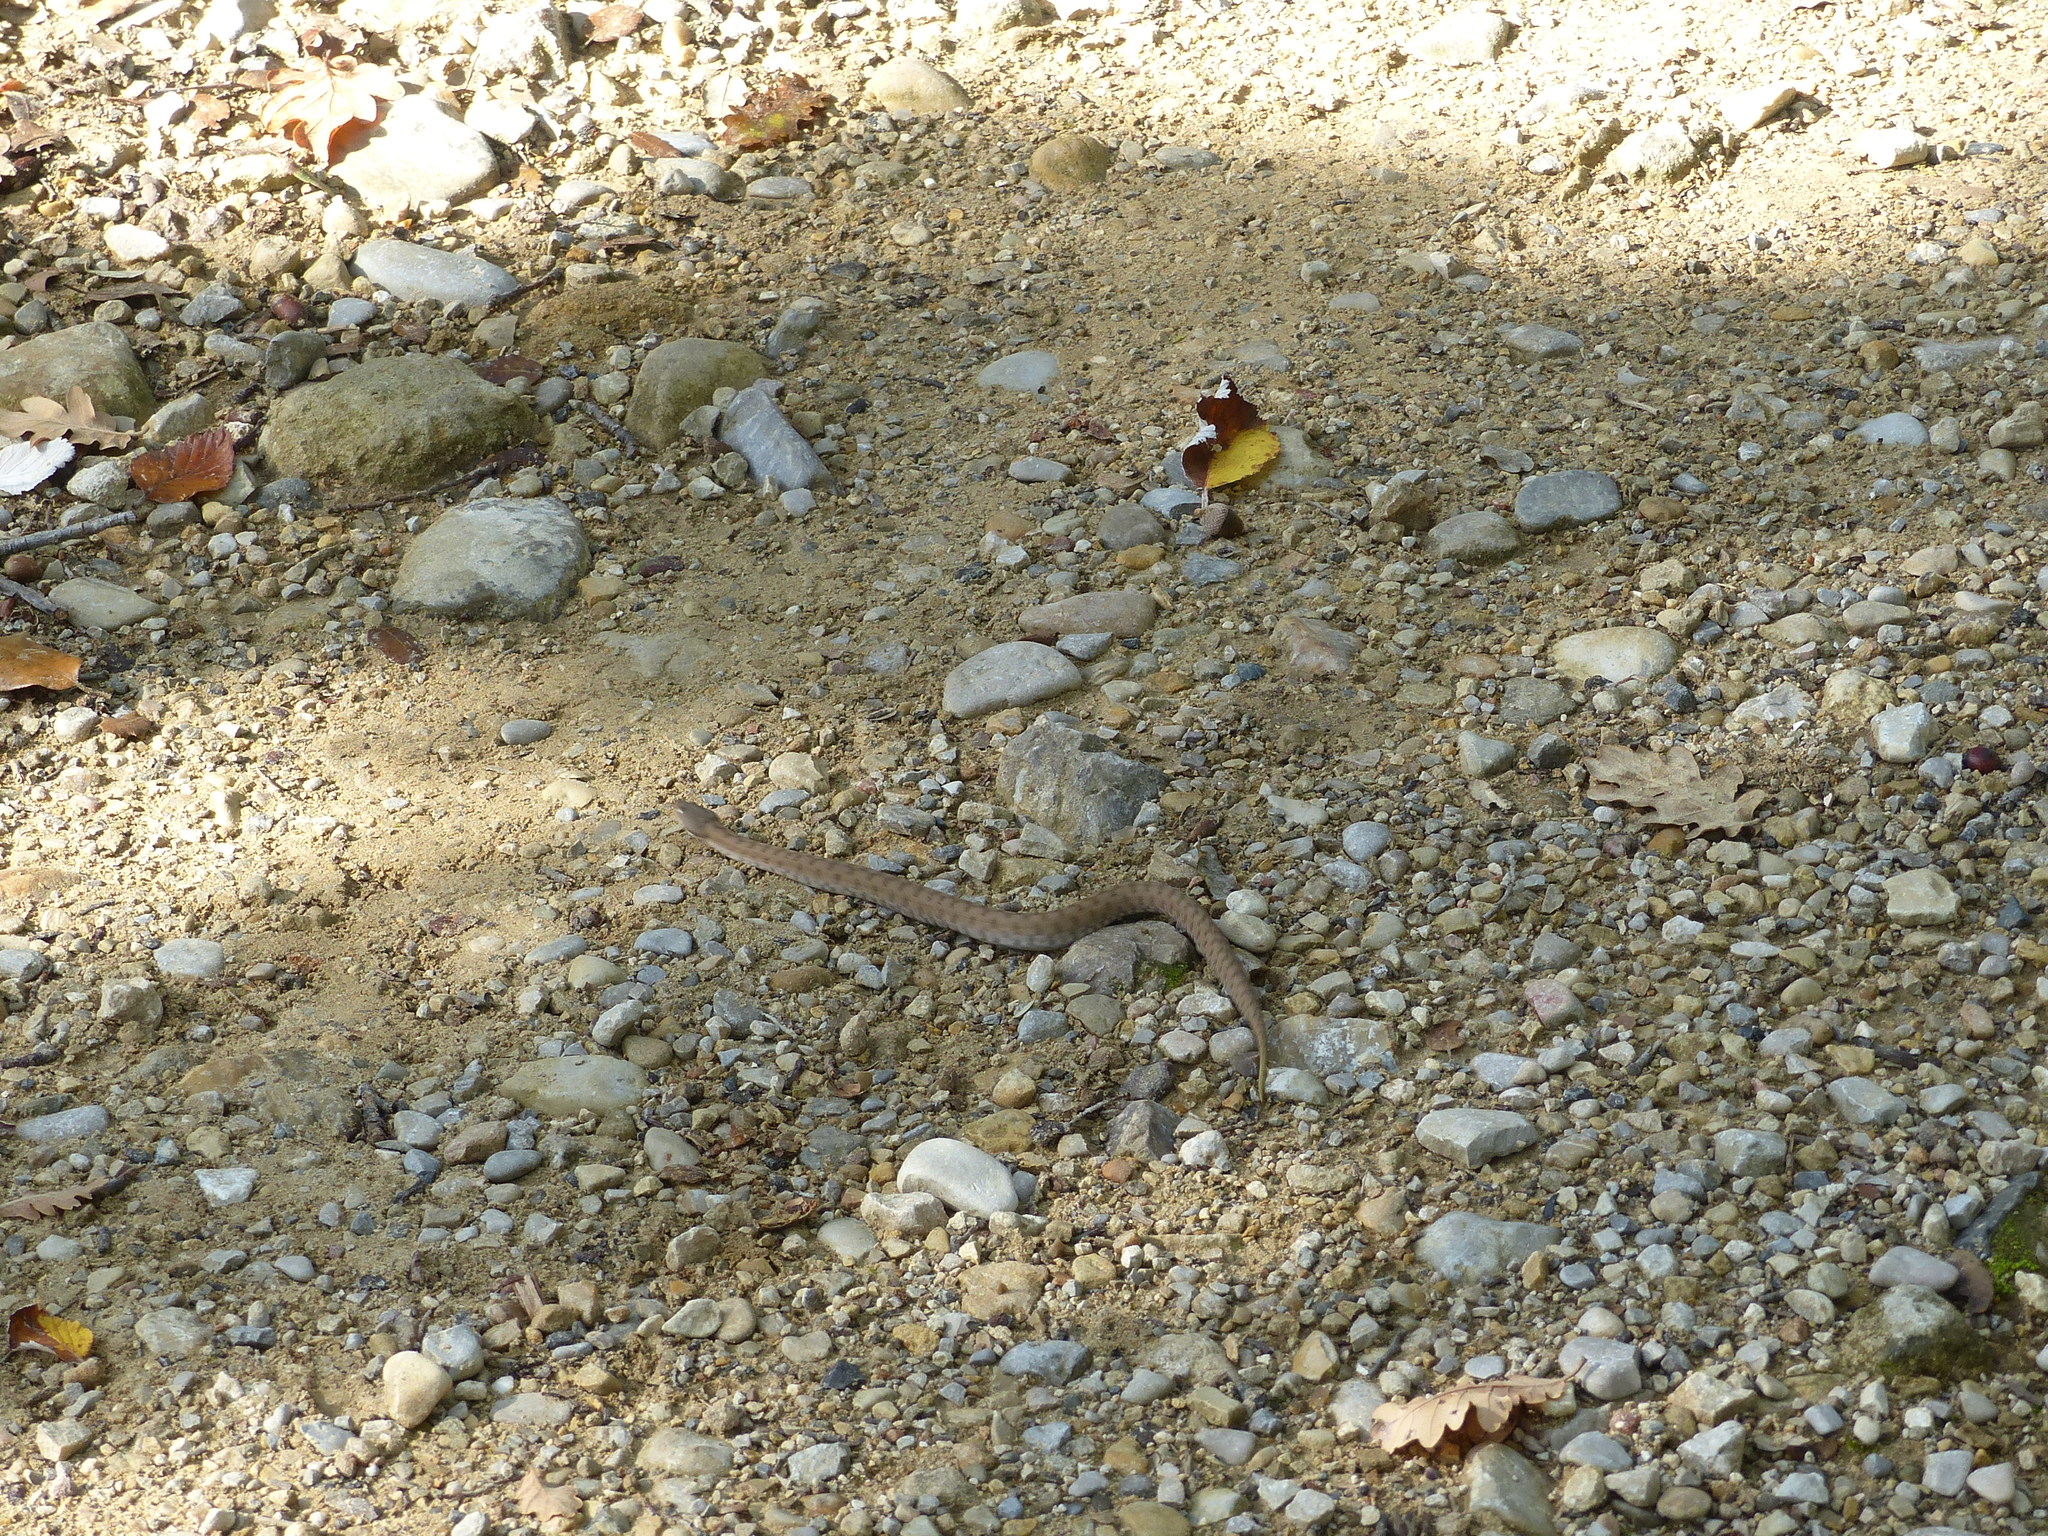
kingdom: Animalia
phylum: Chordata
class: Squamata
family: Viperidae
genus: Vipera
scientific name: Vipera aspis
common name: Asp viper
